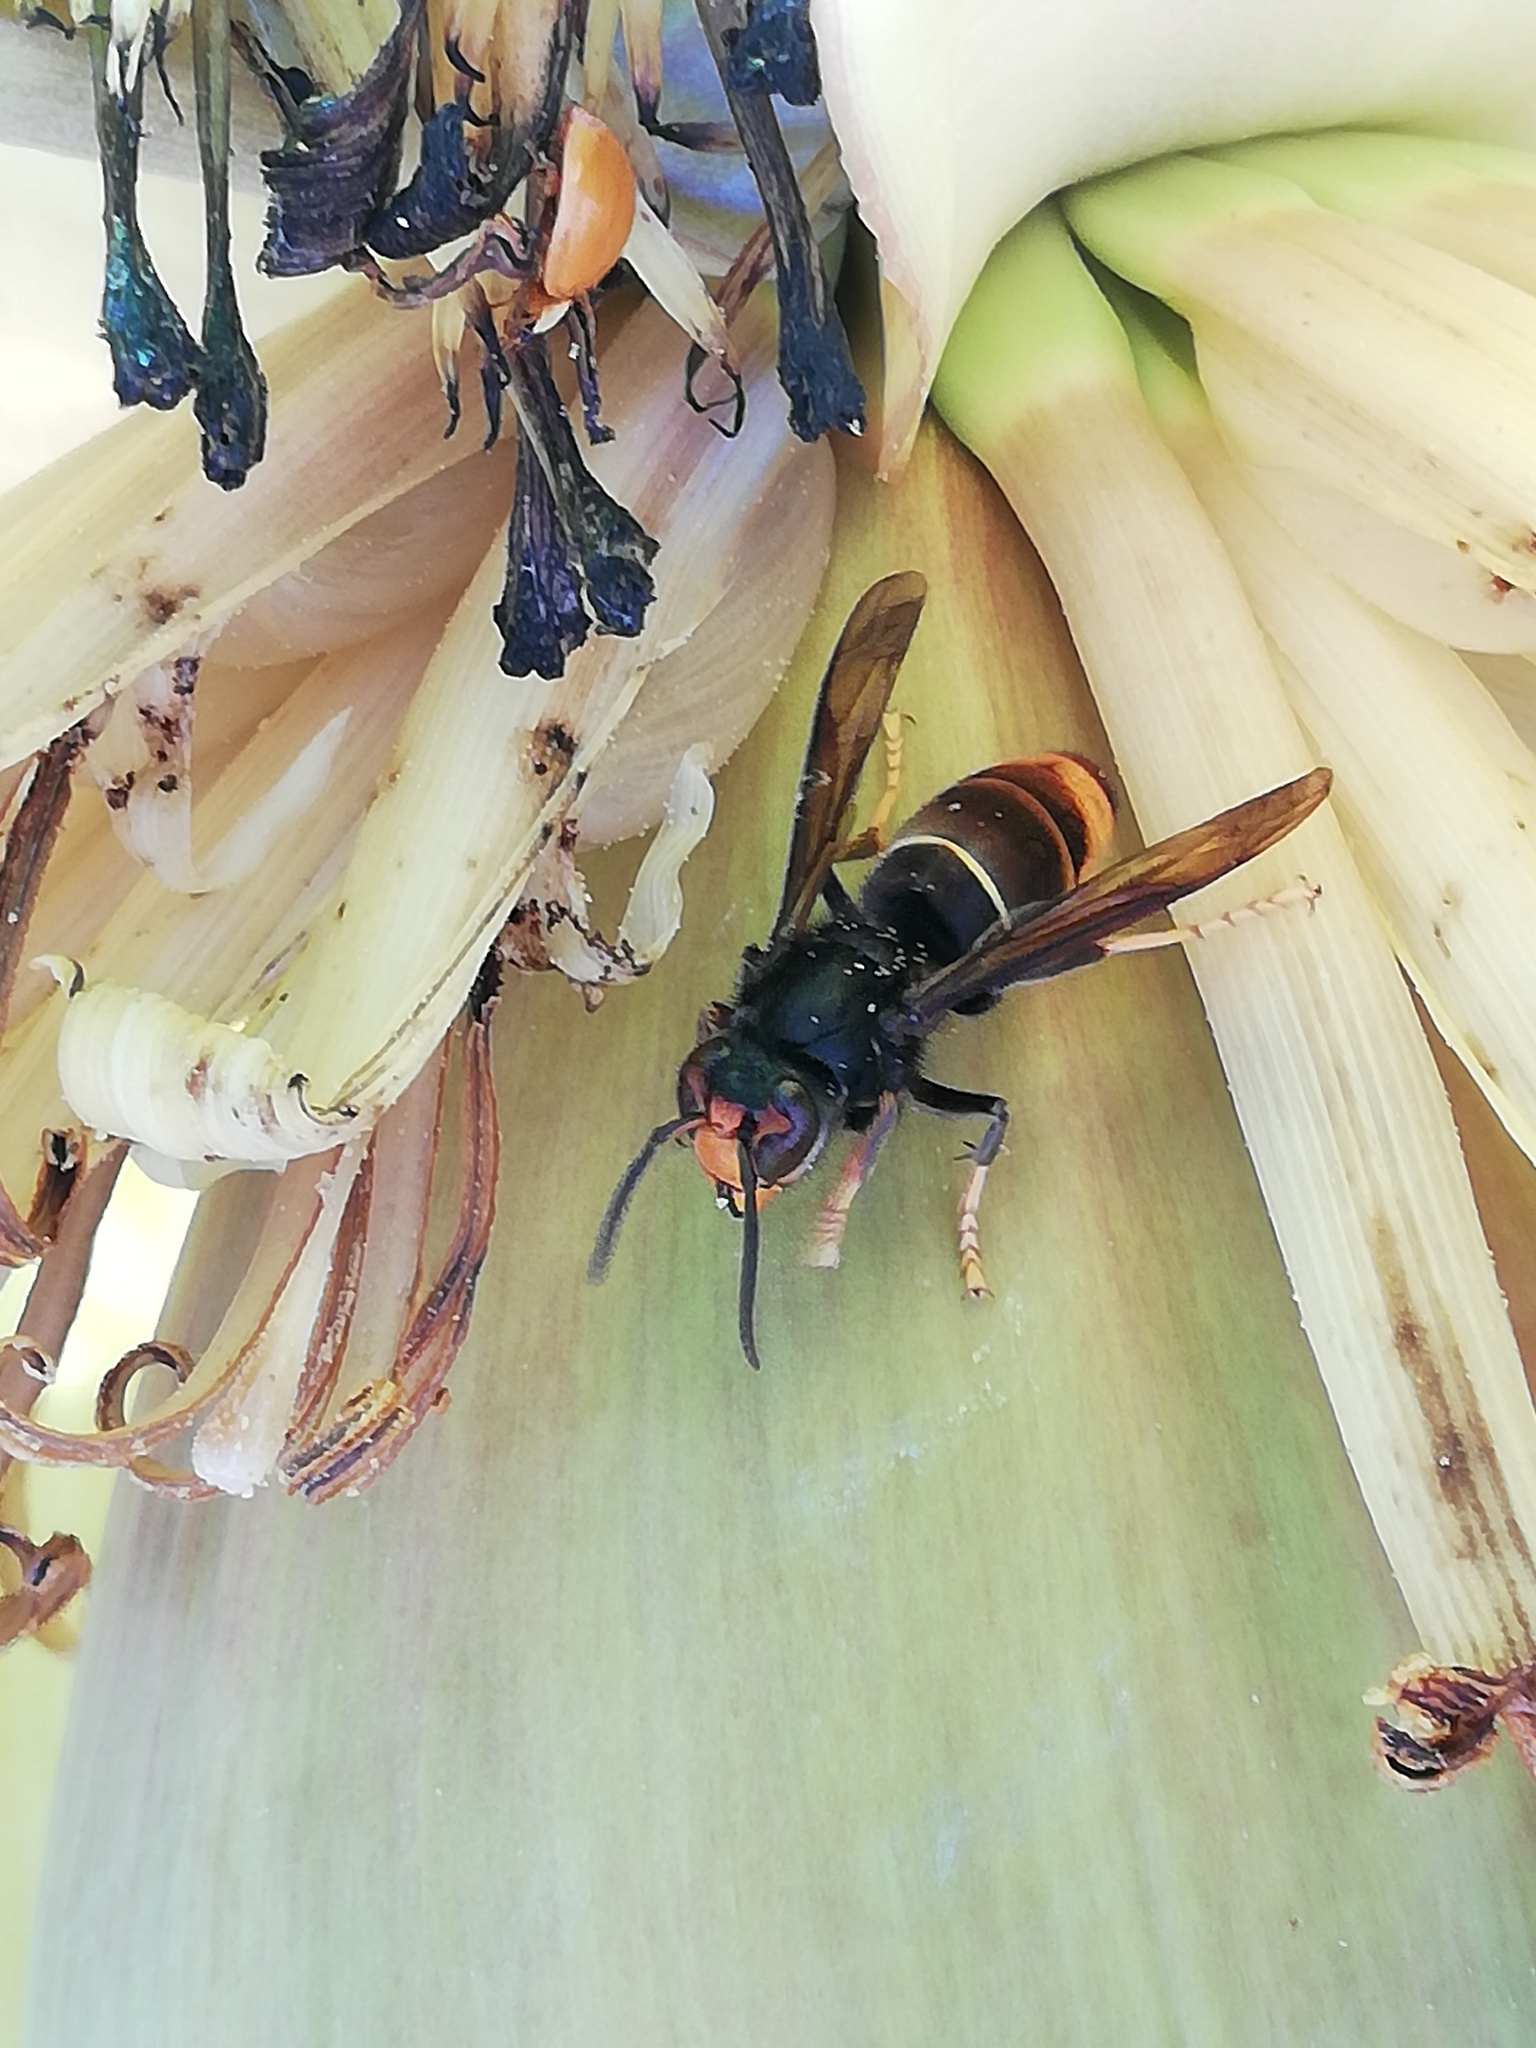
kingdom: Animalia
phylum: Arthropoda
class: Insecta
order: Hymenoptera
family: Vespidae
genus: Vespa
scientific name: Vespa velutina
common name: Asian hornet
